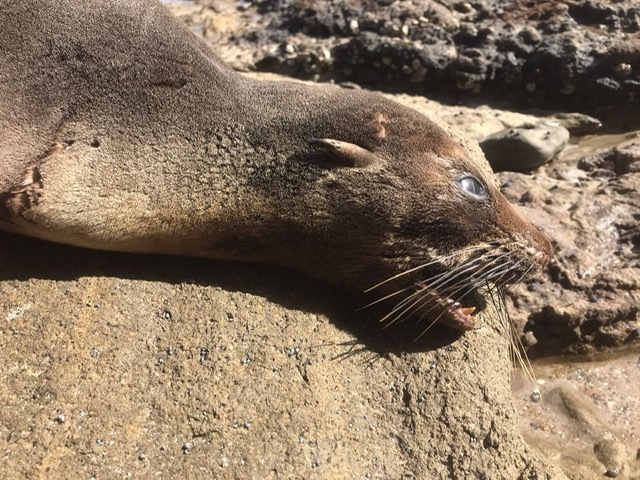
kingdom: Animalia
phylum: Chordata
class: Mammalia
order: Carnivora
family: Otariidae
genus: Arctocephalus
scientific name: Arctocephalus forsteri
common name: New zealand fur seal
